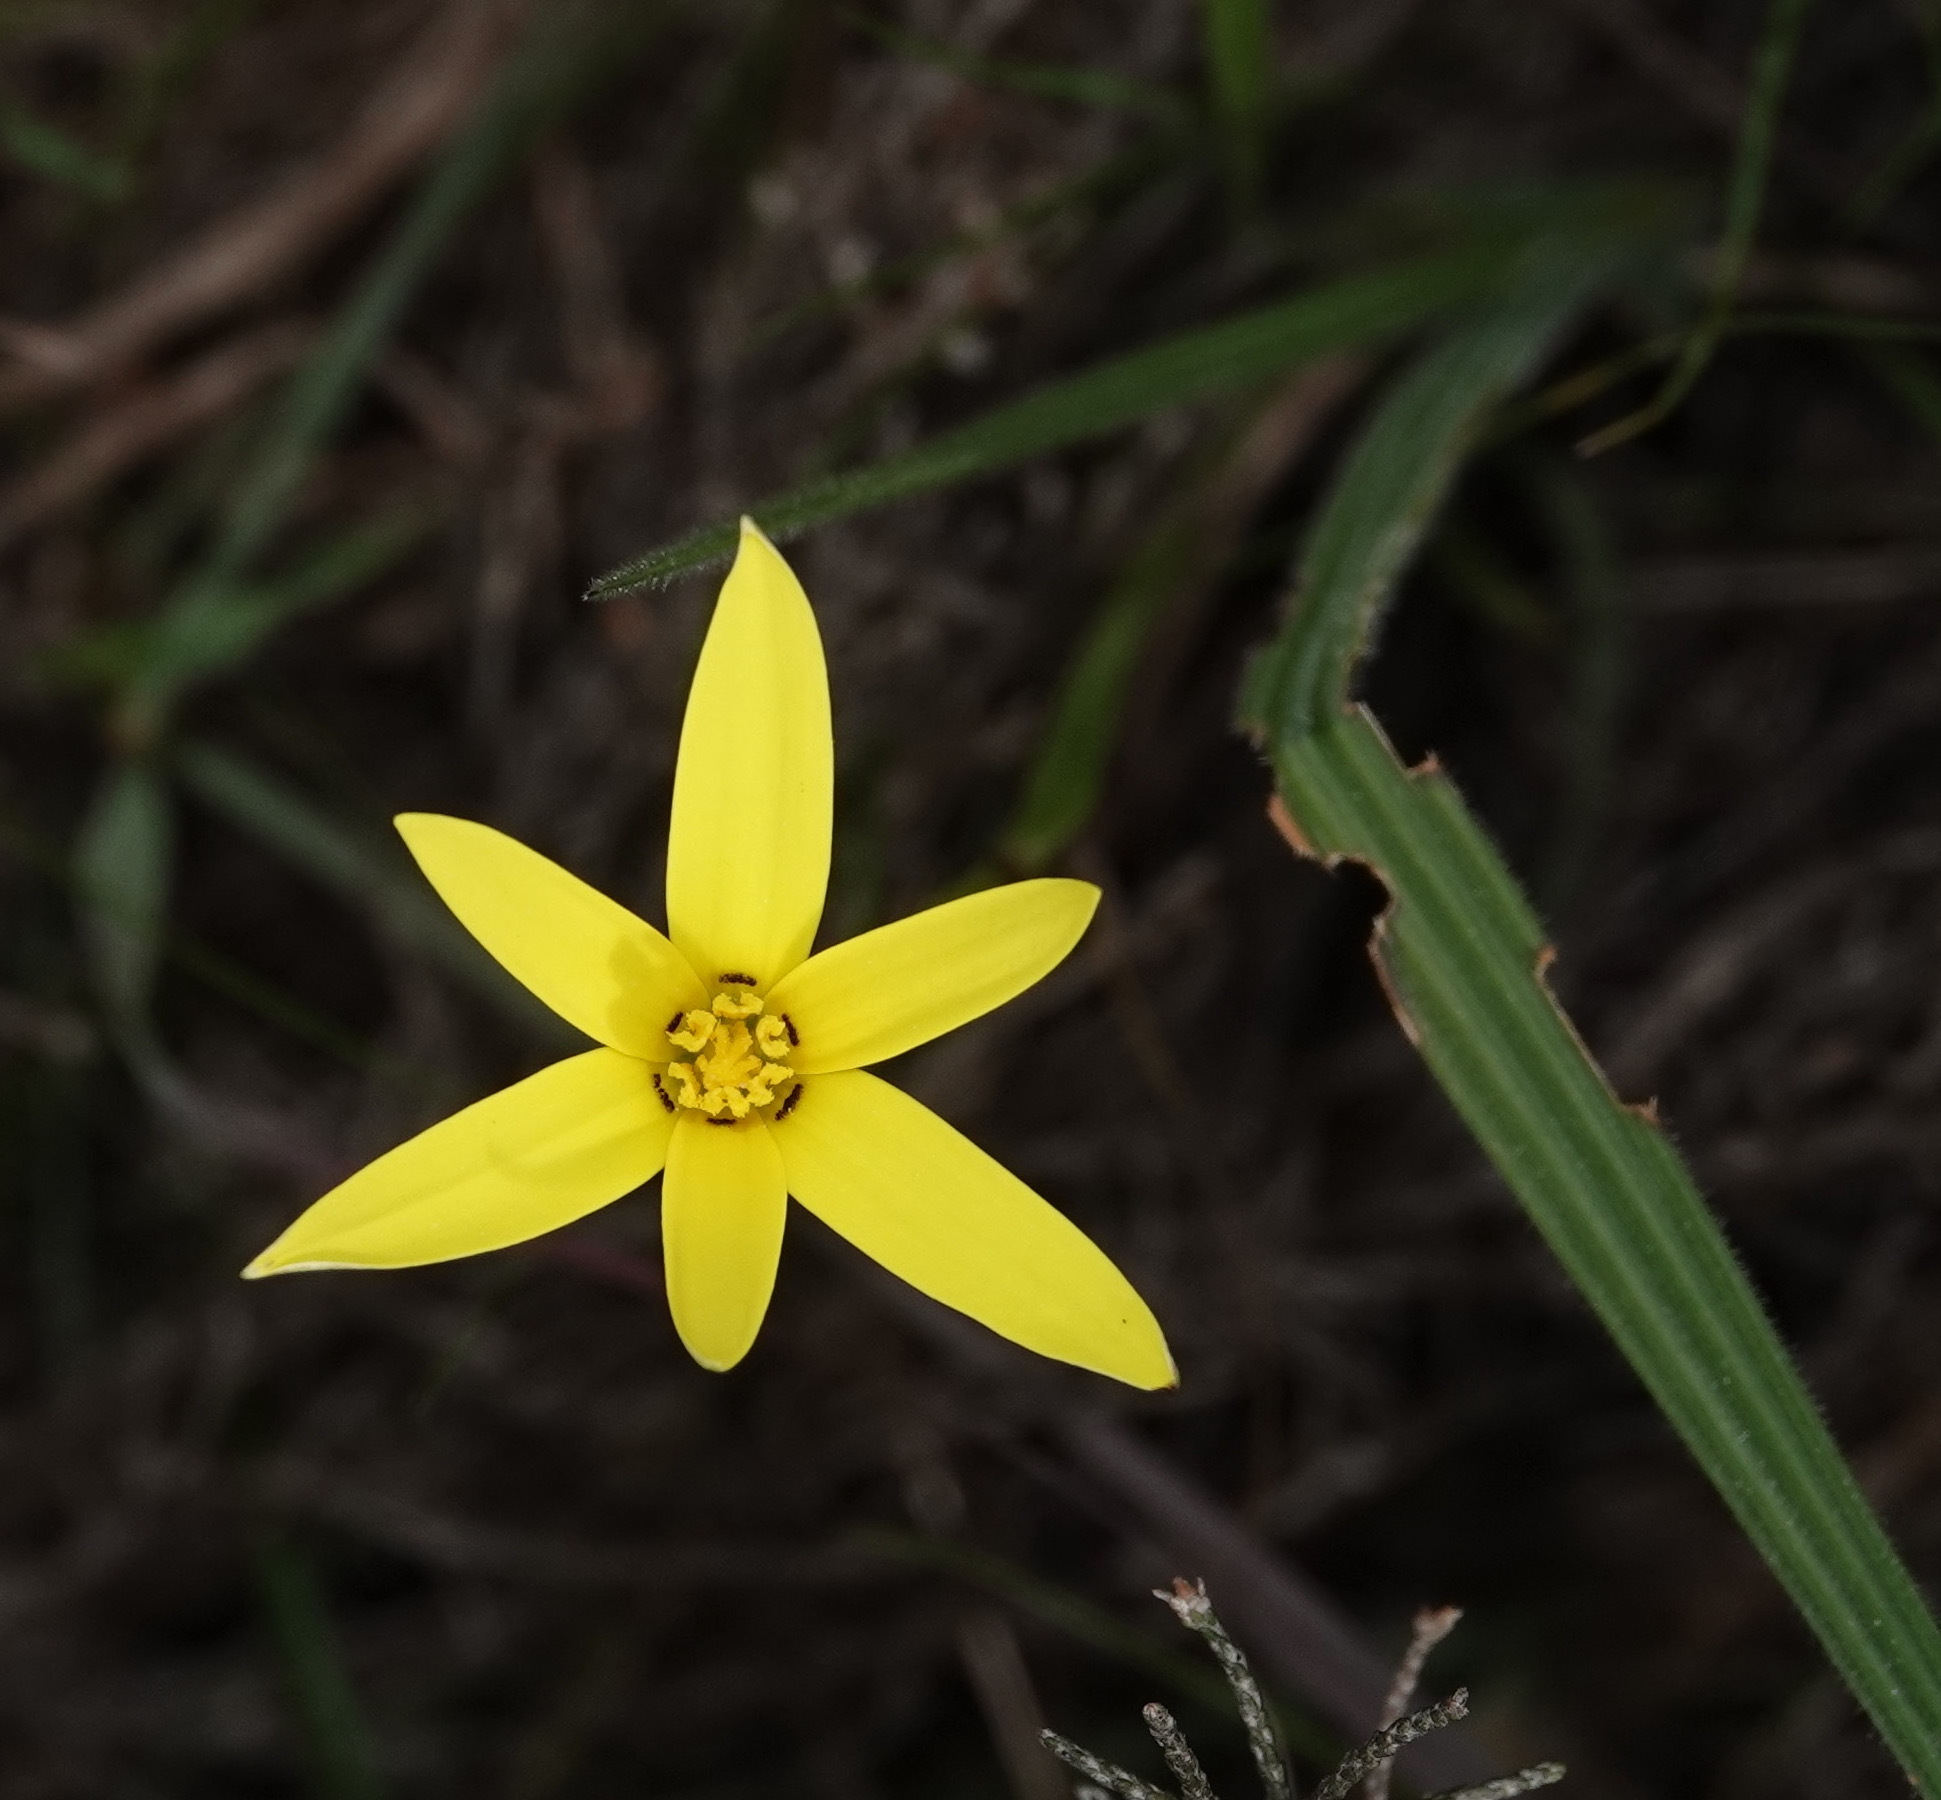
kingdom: Plantae
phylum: Tracheophyta
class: Liliopsida
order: Asparagales
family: Hypoxidaceae
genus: Pauridia
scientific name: Pauridia capensis
